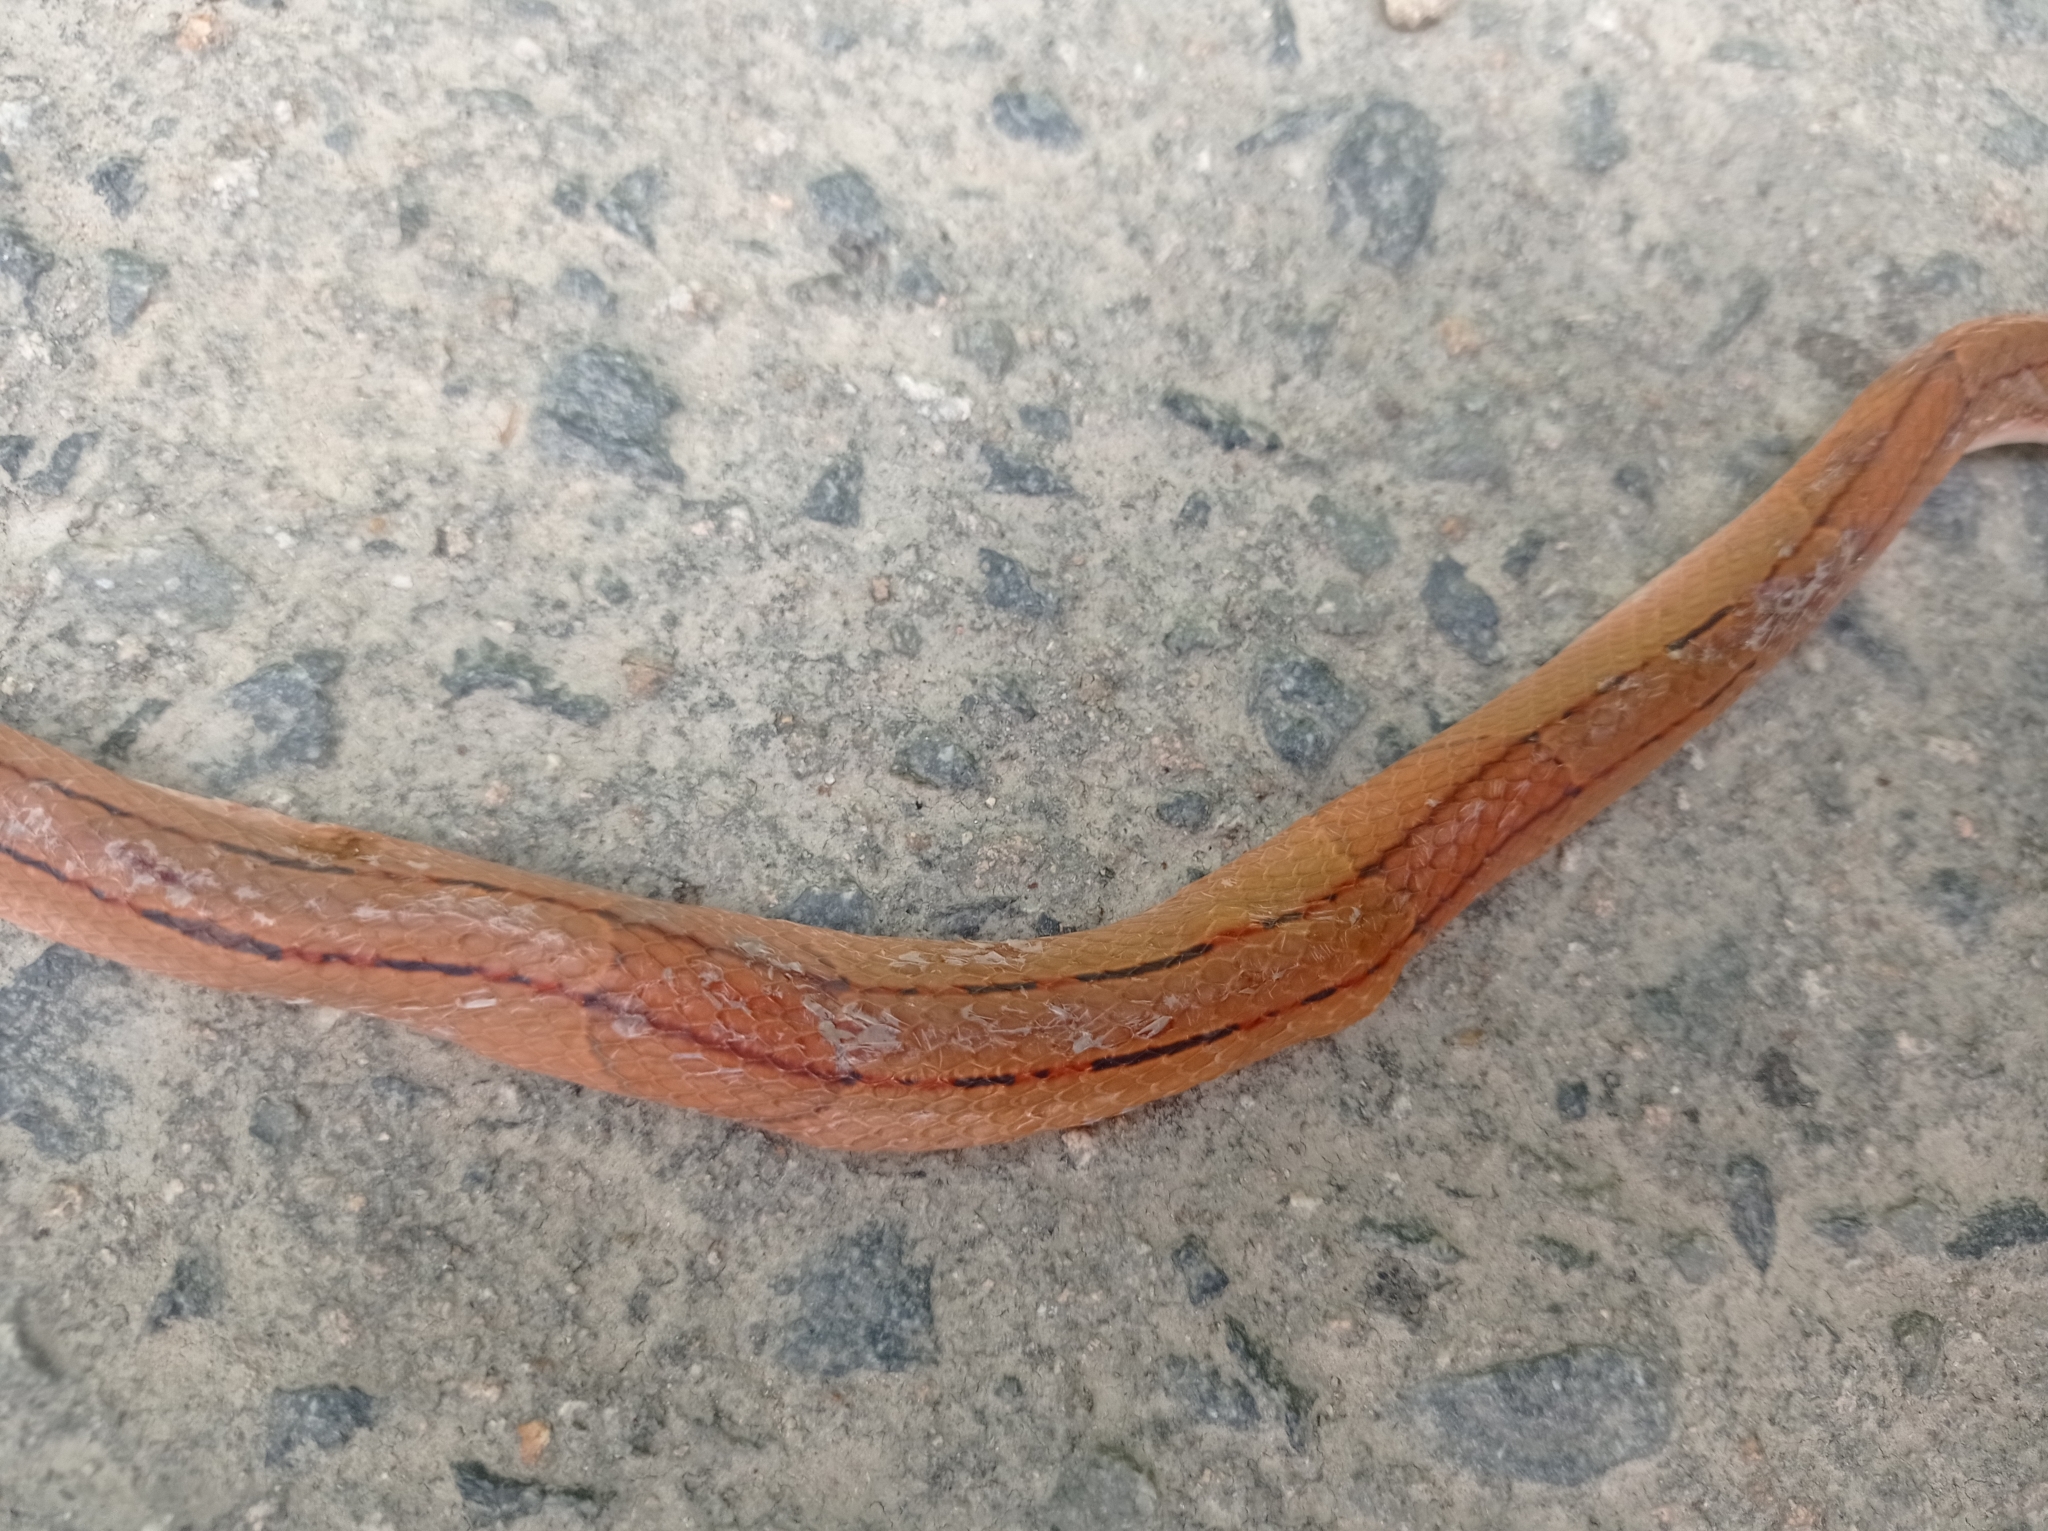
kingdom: Animalia
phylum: Chordata
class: Squamata
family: Colubridae
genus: Oreocryptophis
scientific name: Oreocryptophis porphyraceus
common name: Black-banded trinket snake
